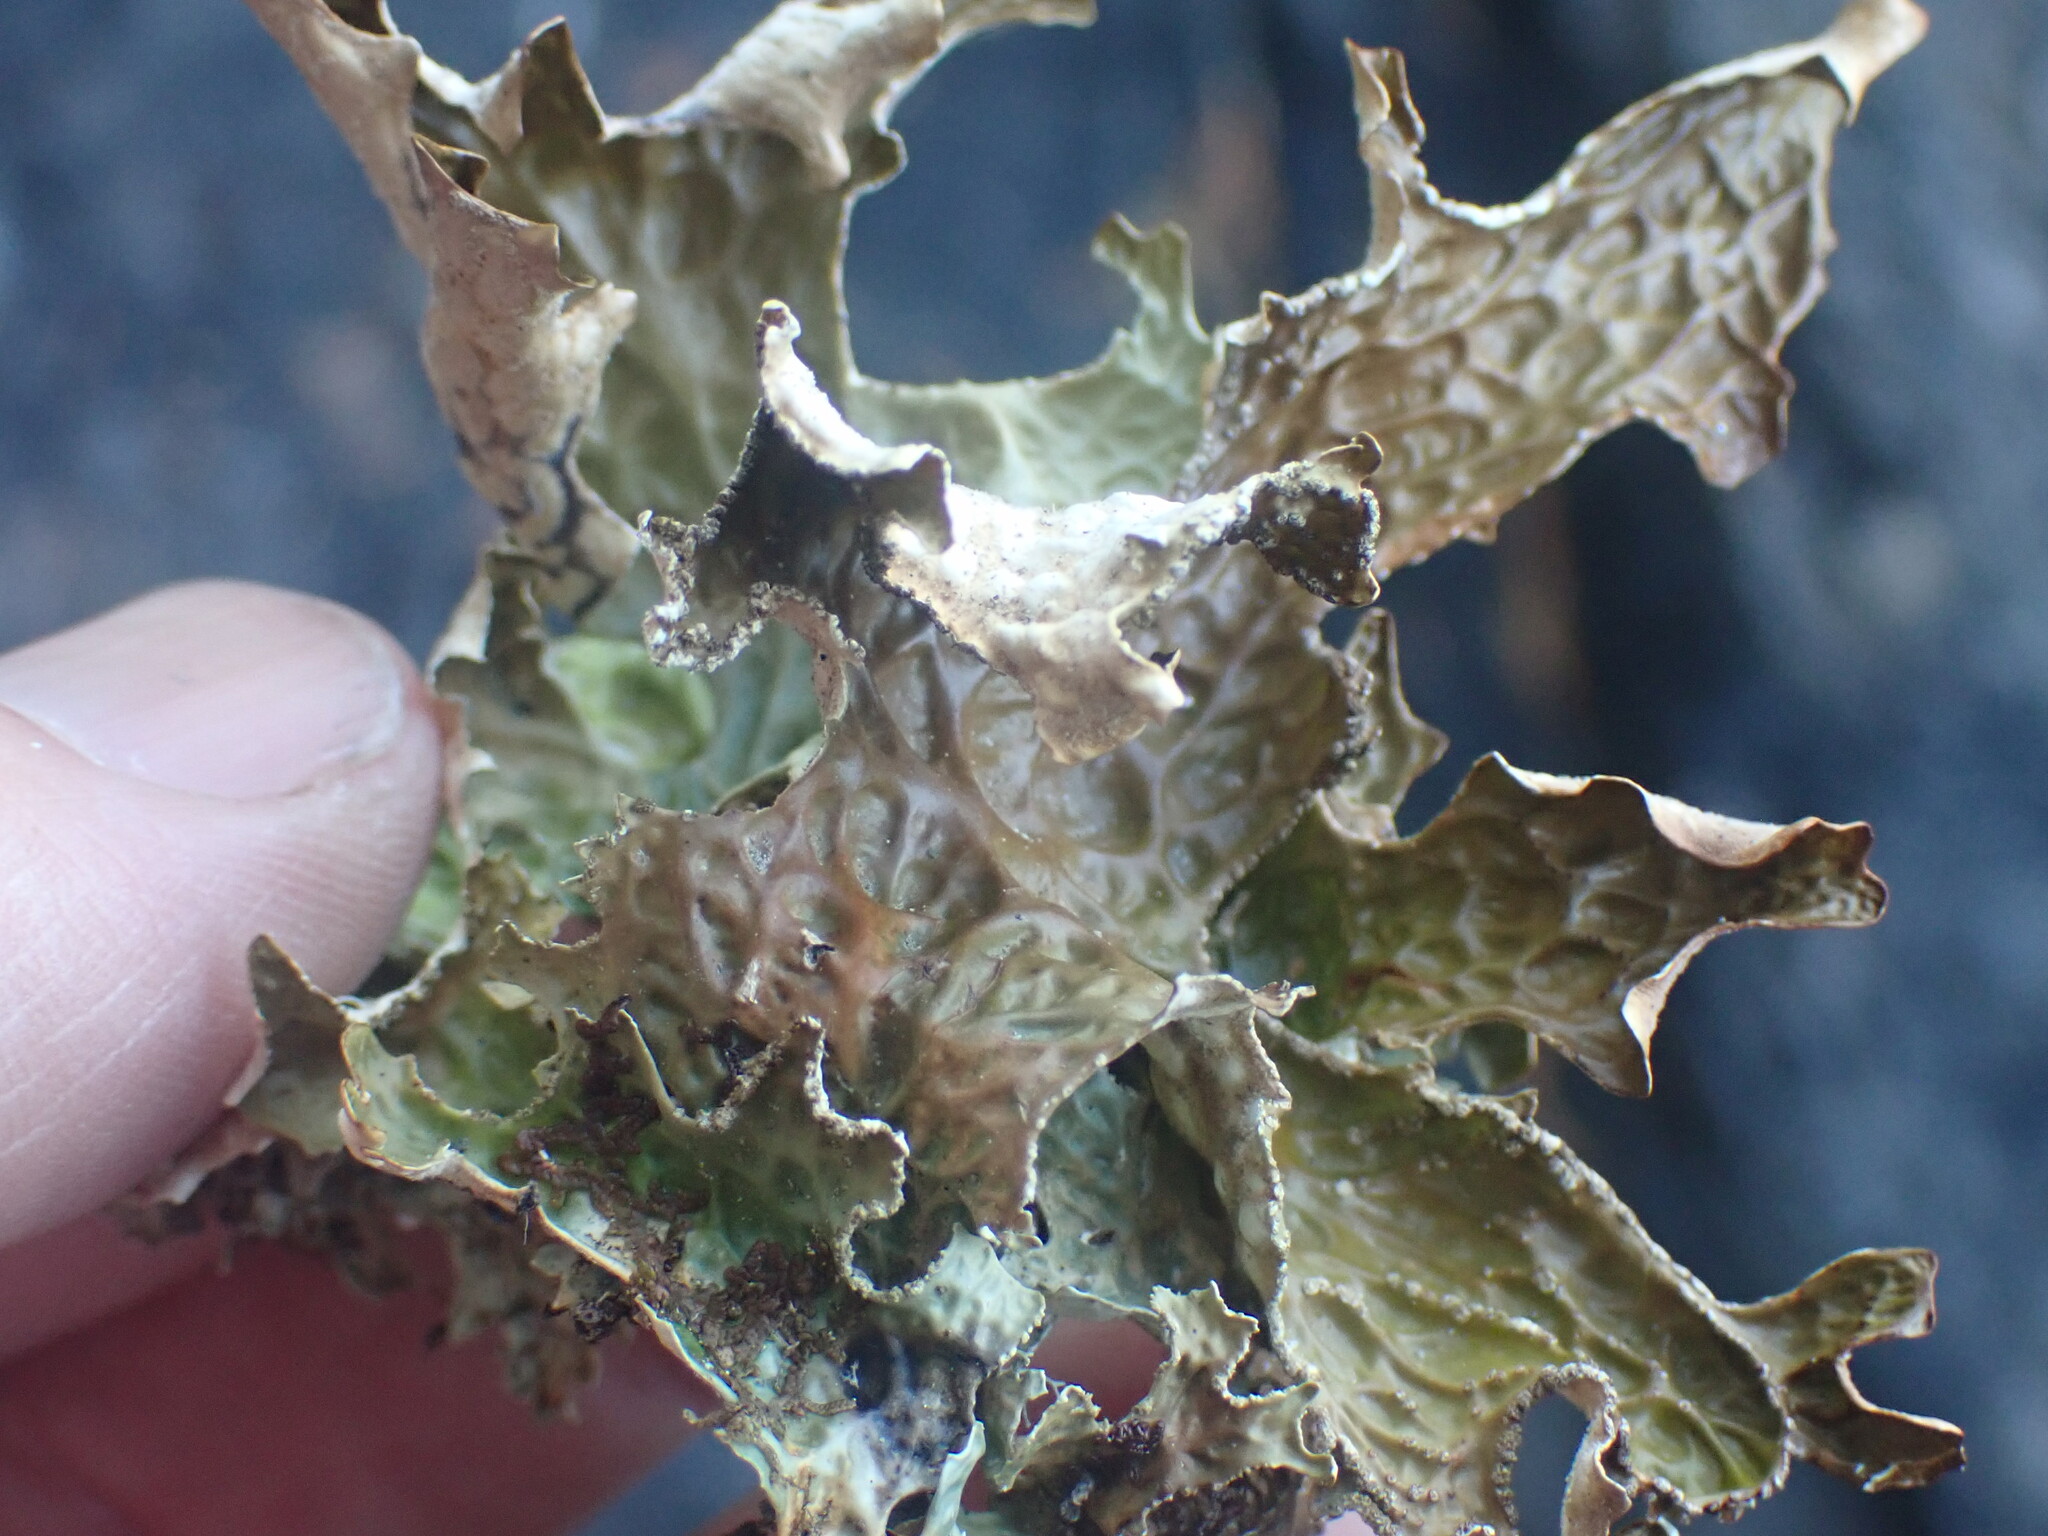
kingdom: Fungi
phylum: Ascomycota
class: Lecanoromycetes
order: Peltigerales
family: Lobariaceae
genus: Lobaria
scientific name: Lobaria pulmonaria
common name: Lungwort
